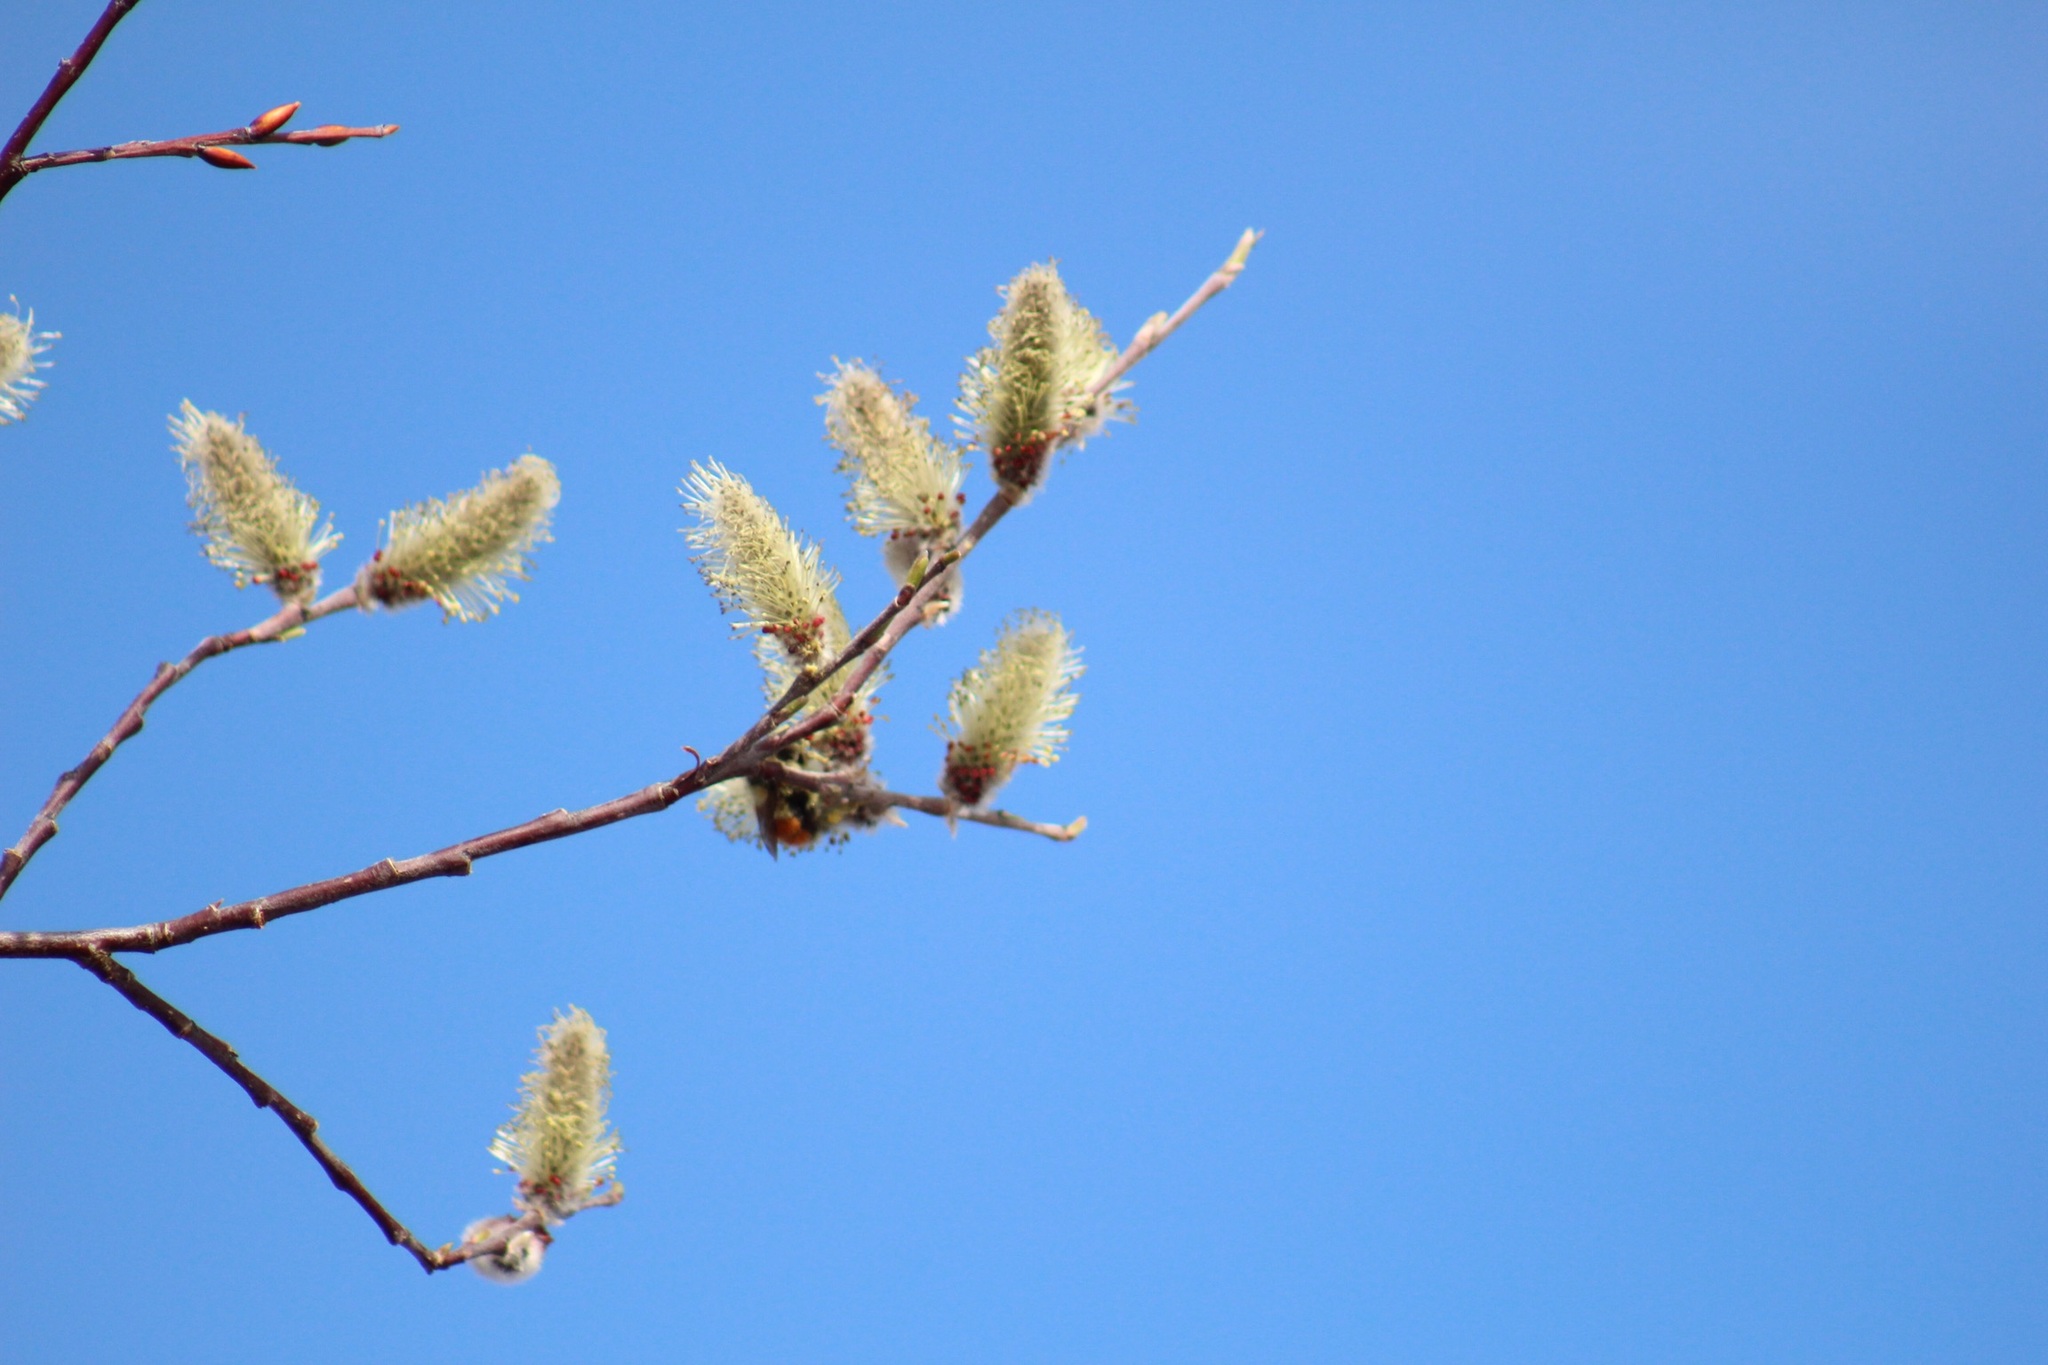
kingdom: Animalia
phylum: Arthropoda
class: Insecta
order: Hymenoptera
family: Apidae
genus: Bombus
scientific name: Bombus melanopygus
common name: Black tail bumble bee
